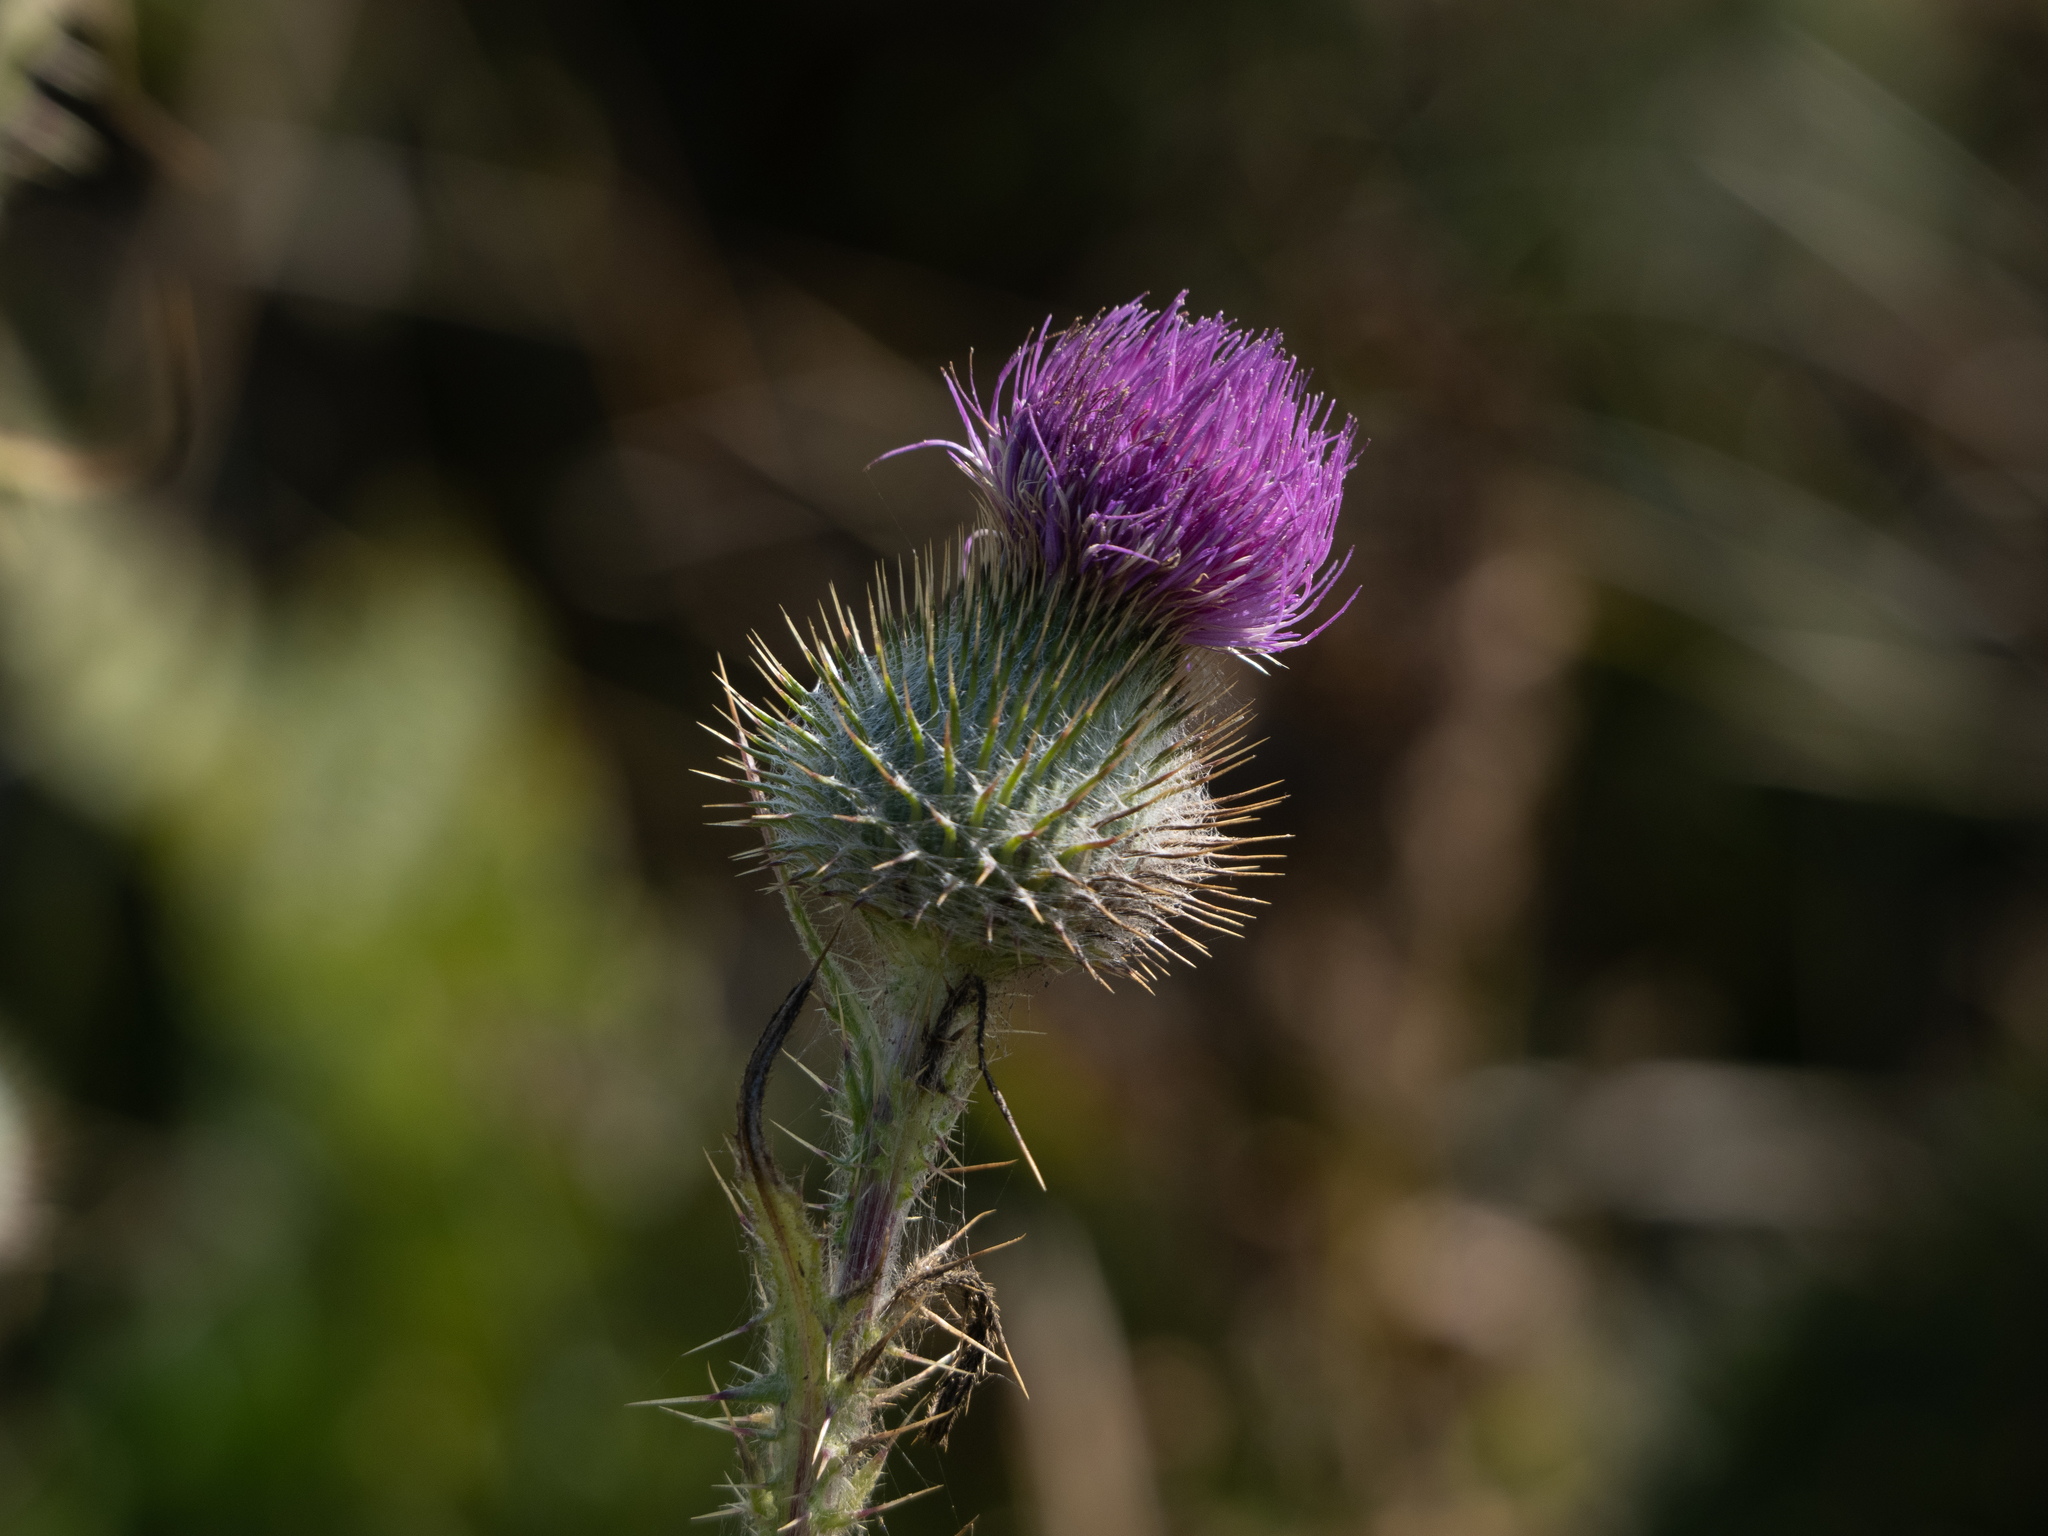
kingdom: Plantae
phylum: Tracheophyta
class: Magnoliopsida
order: Asterales
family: Asteraceae
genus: Cirsium
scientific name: Cirsium vulgare
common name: Bull thistle
